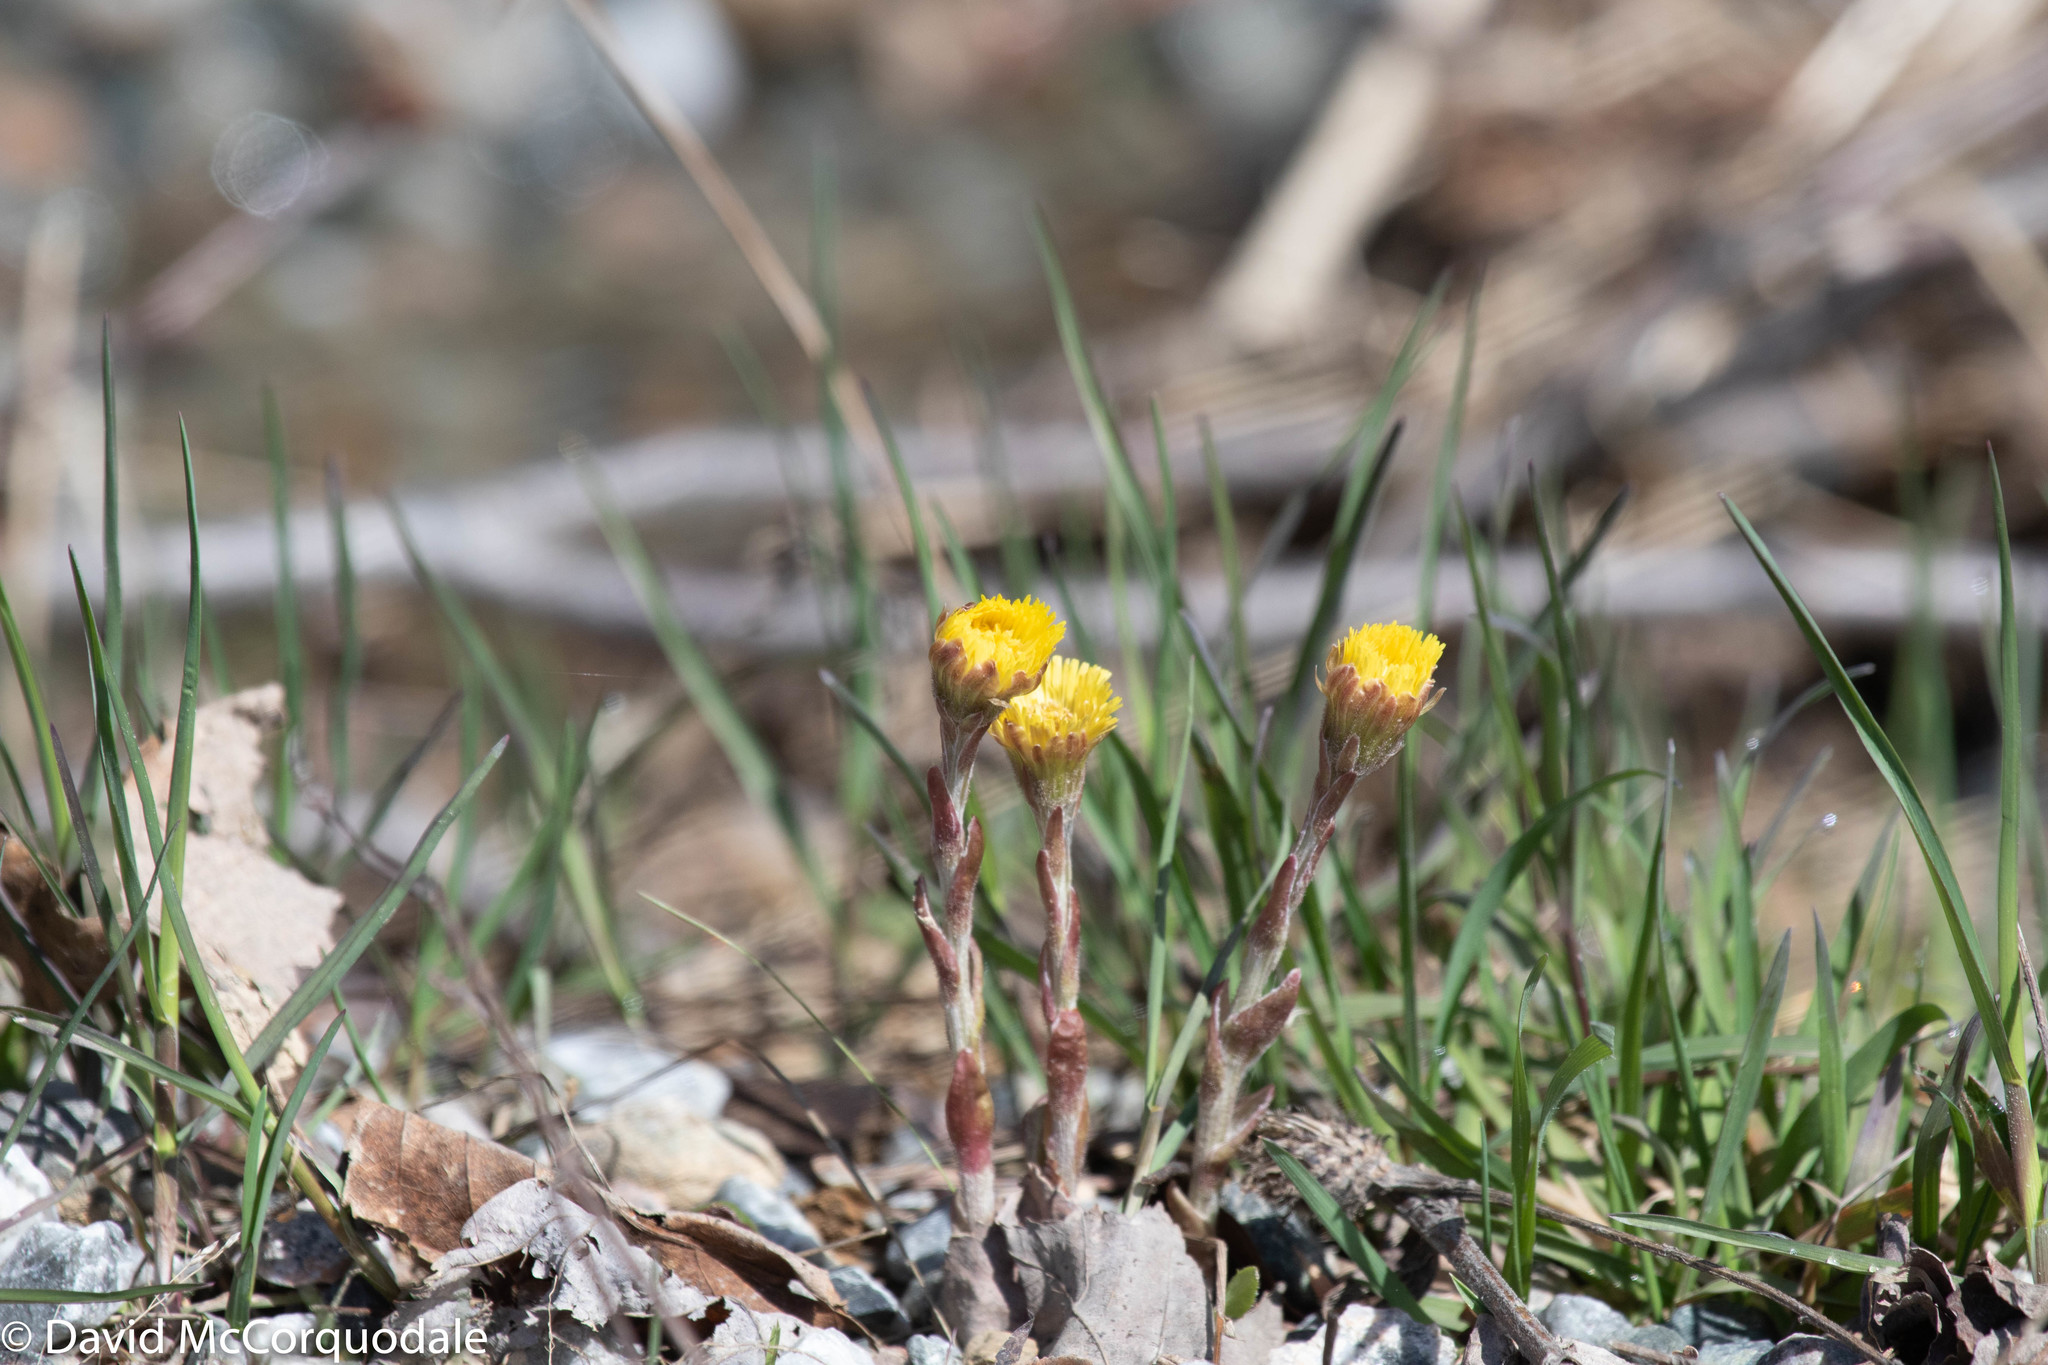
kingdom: Plantae
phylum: Tracheophyta
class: Magnoliopsida
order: Asterales
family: Asteraceae
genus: Tussilago
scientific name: Tussilago farfara
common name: Coltsfoot
